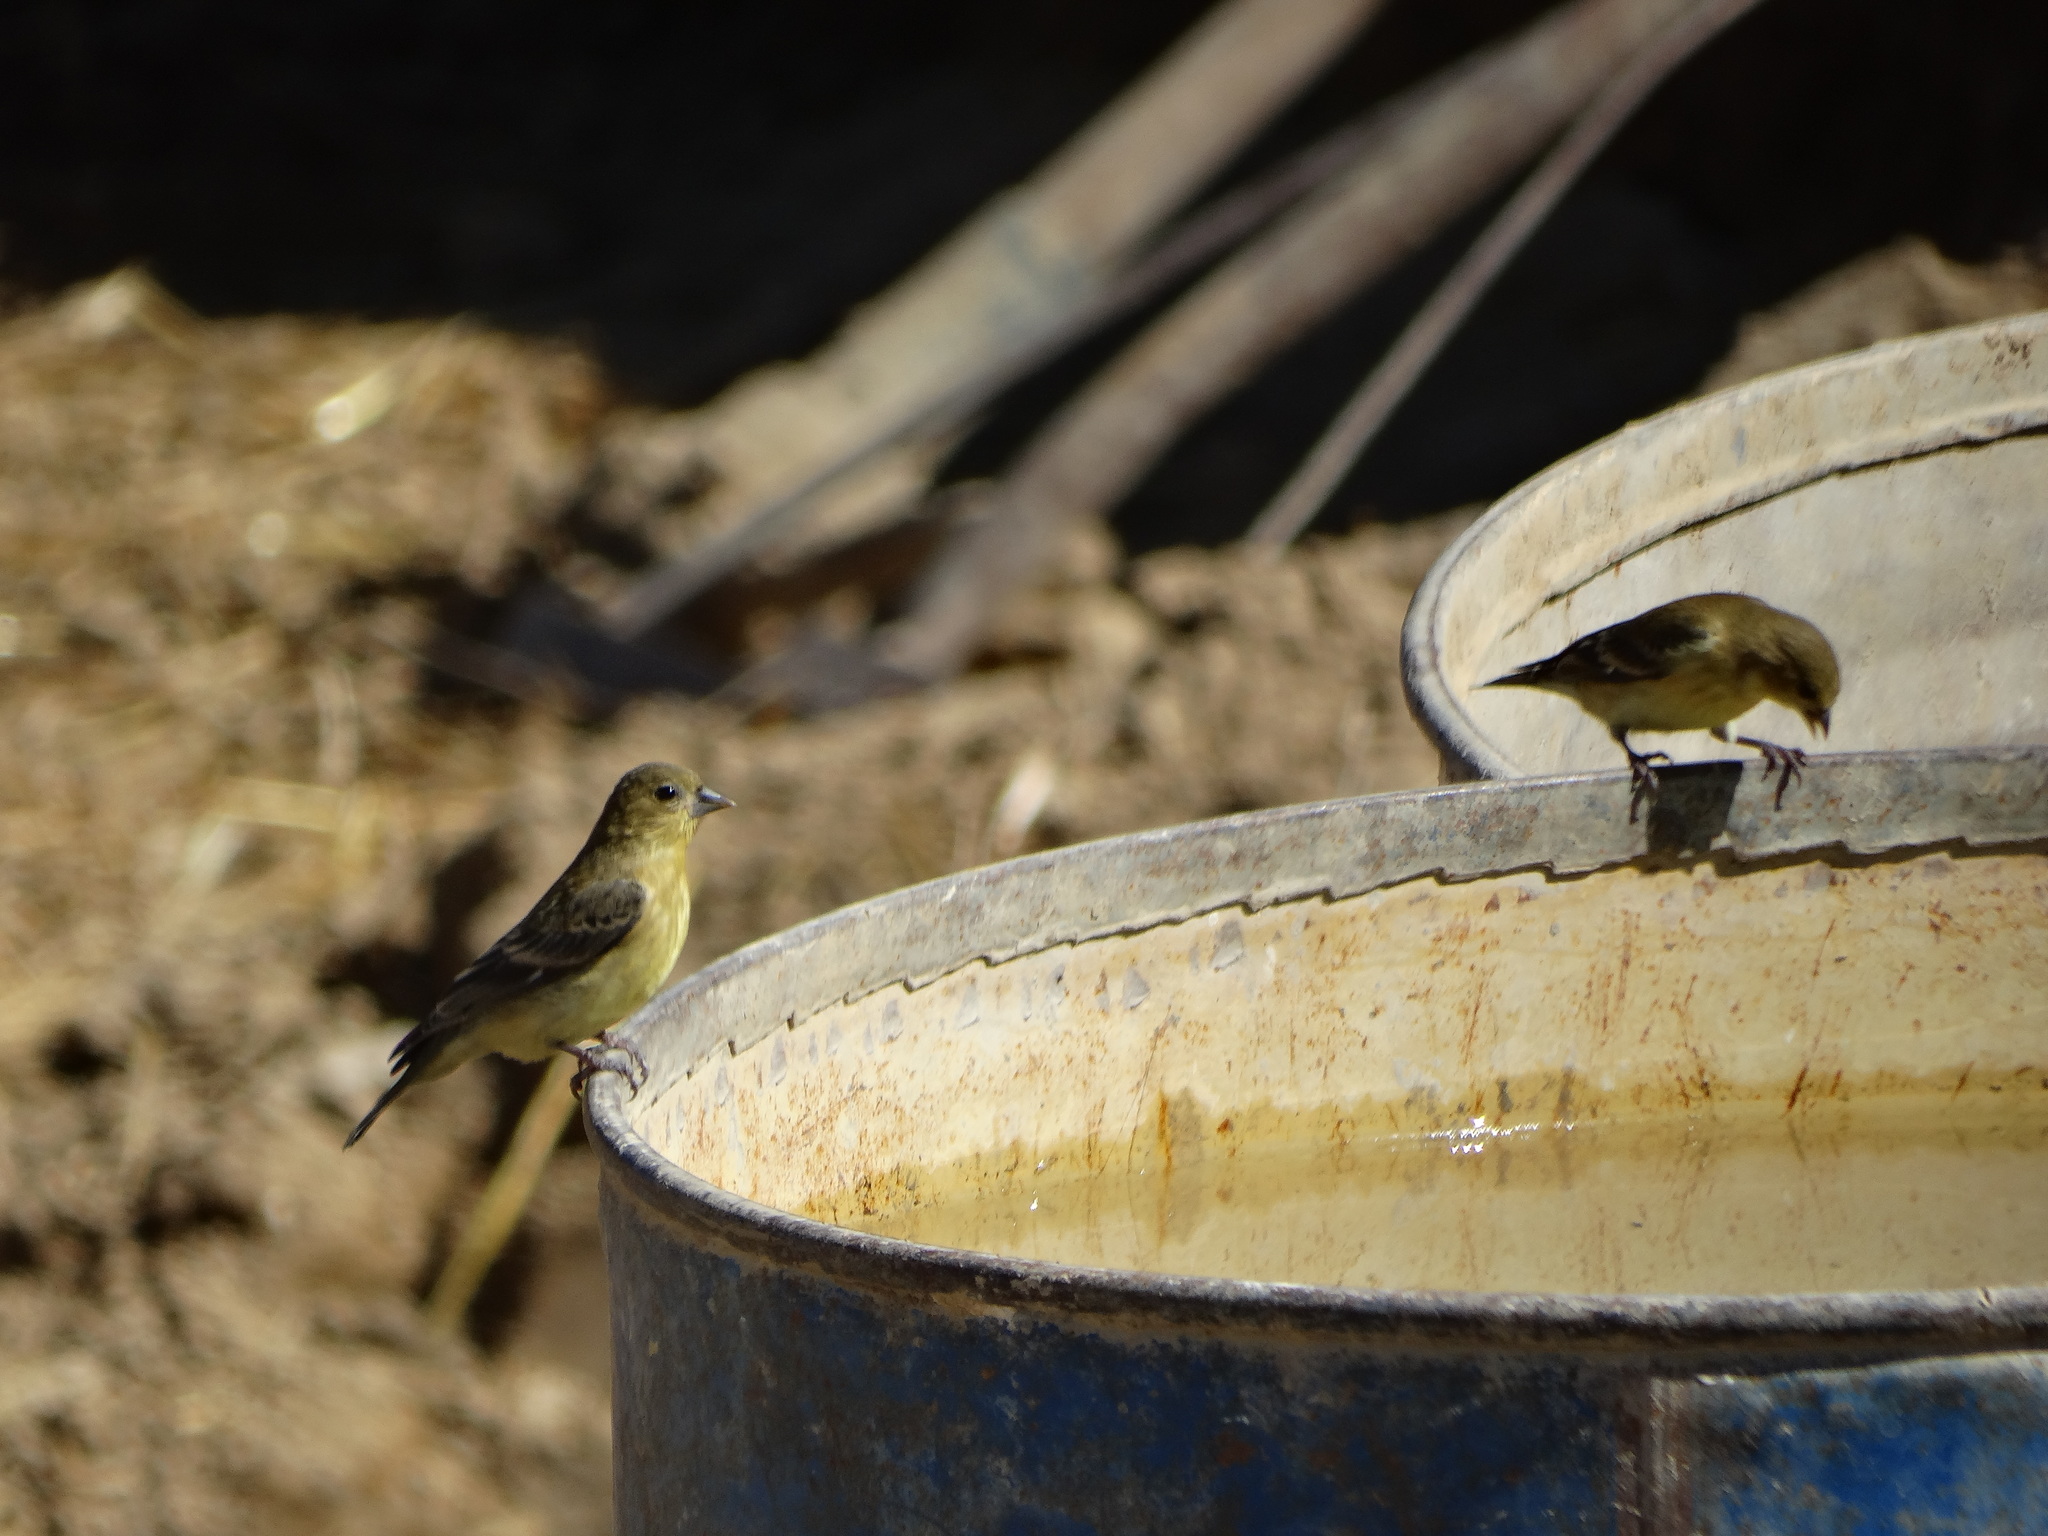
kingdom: Animalia
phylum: Chordata
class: Aves
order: Passeriformes
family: Fringillidae
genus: Spinus
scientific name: Spinus psaltria
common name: Lesser goldfinch
